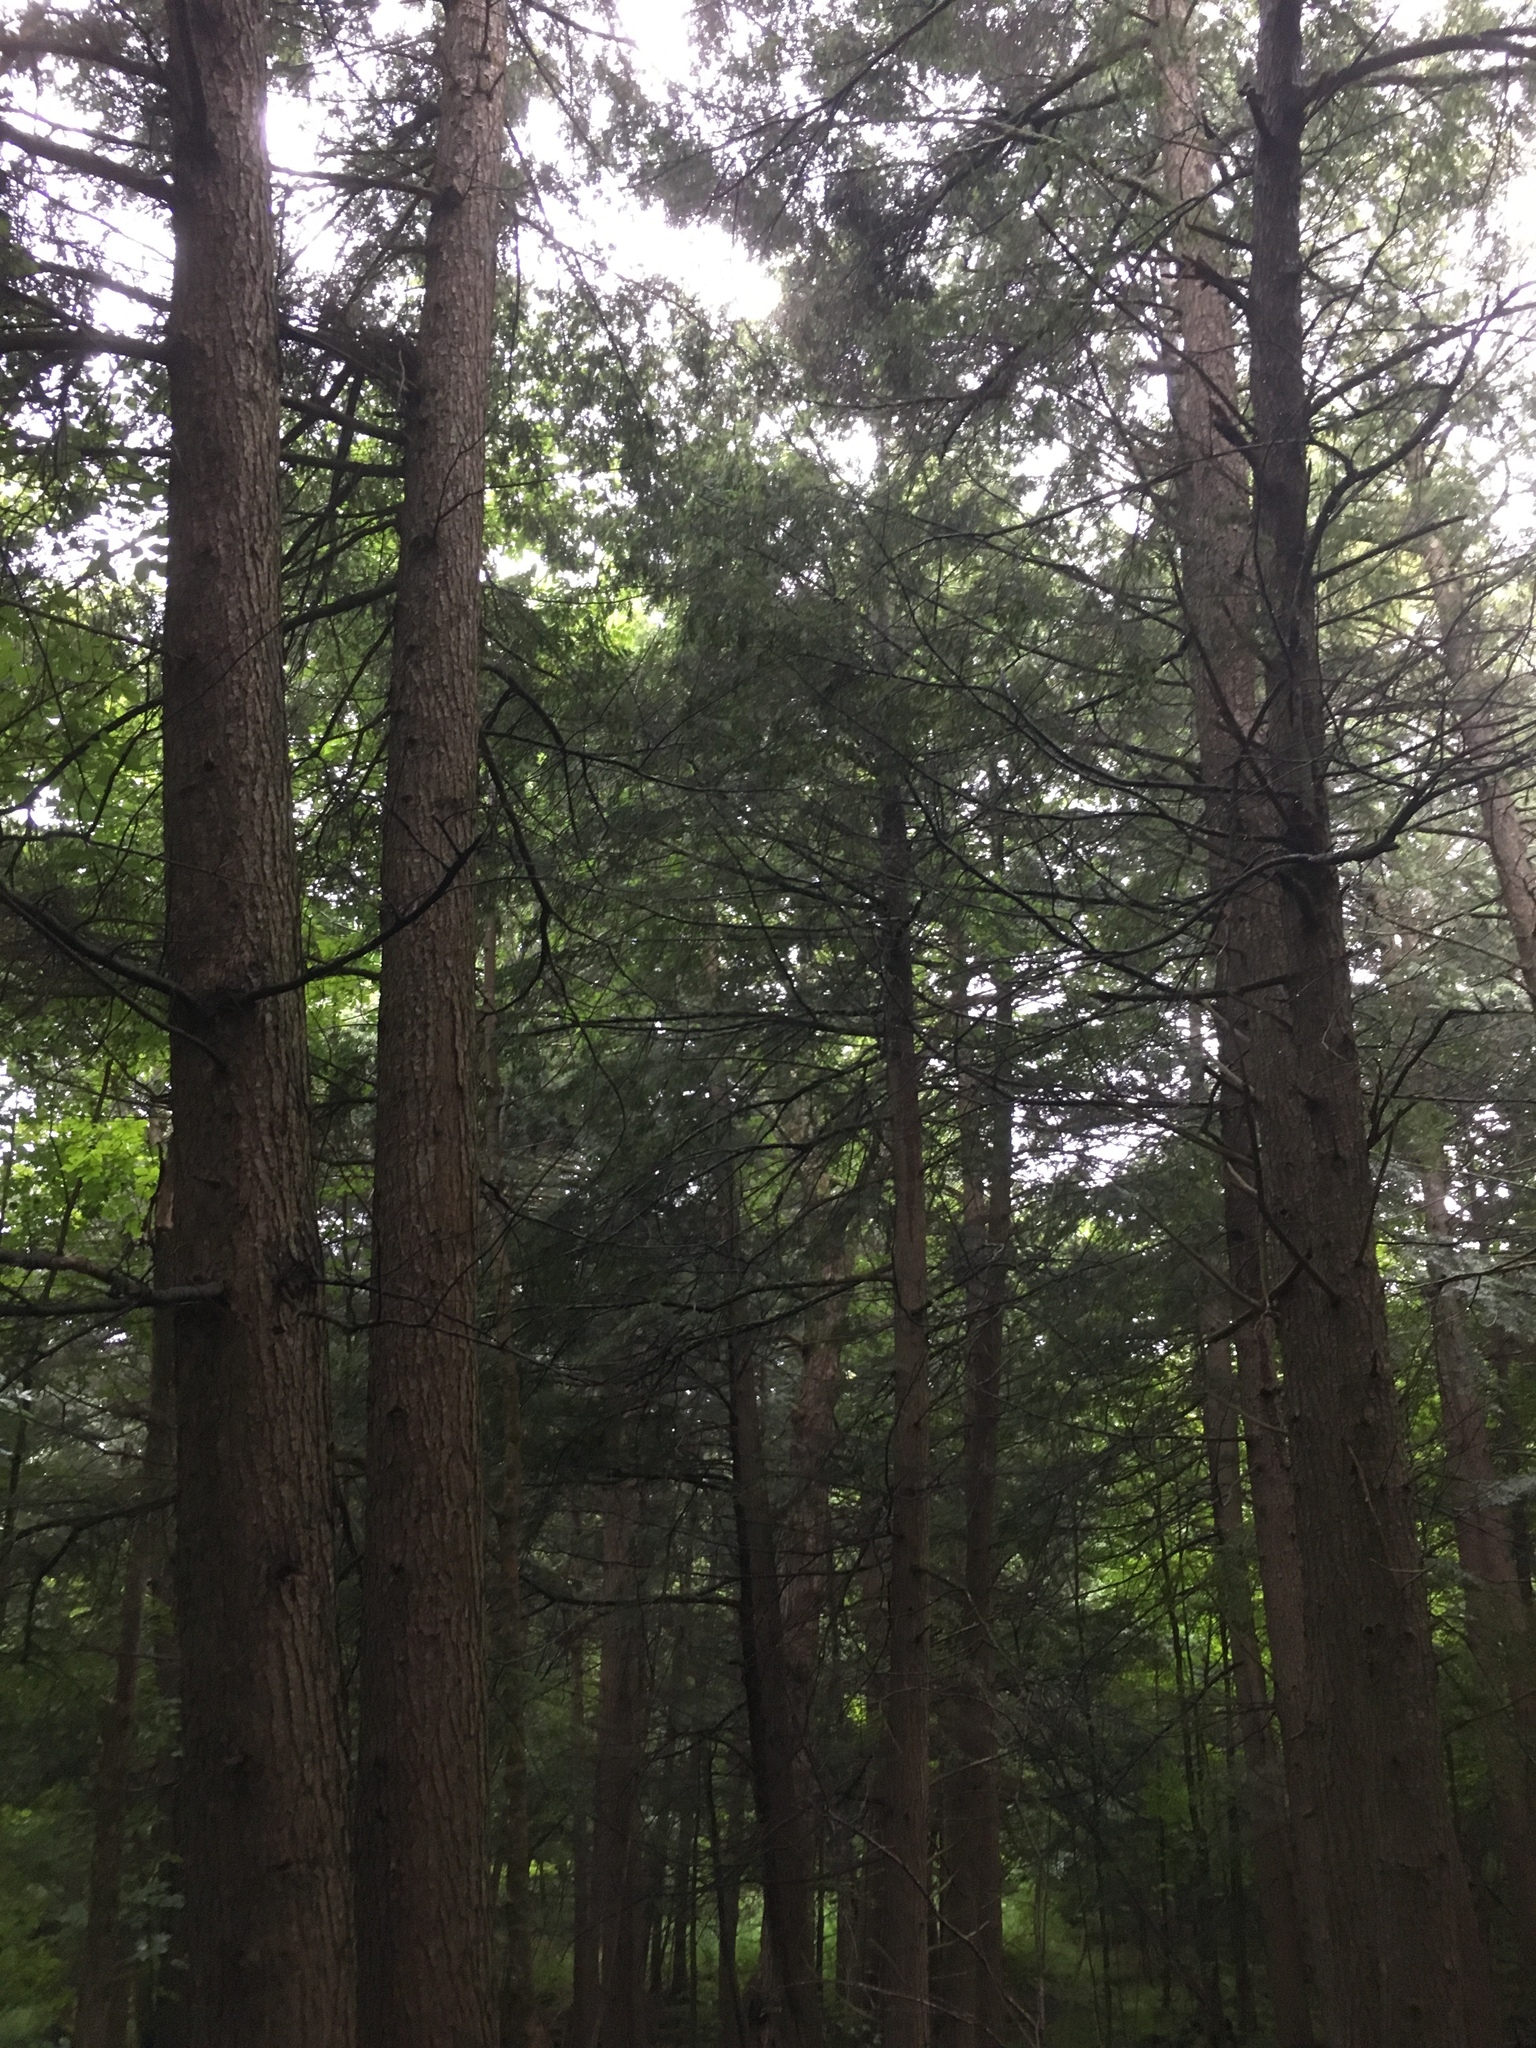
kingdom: Plantae
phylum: Tracheophyta
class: Pinopsida
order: Pinales
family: Pinaceae
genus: Tsuga
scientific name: Tsuga canadensis
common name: Eastern hemlock
